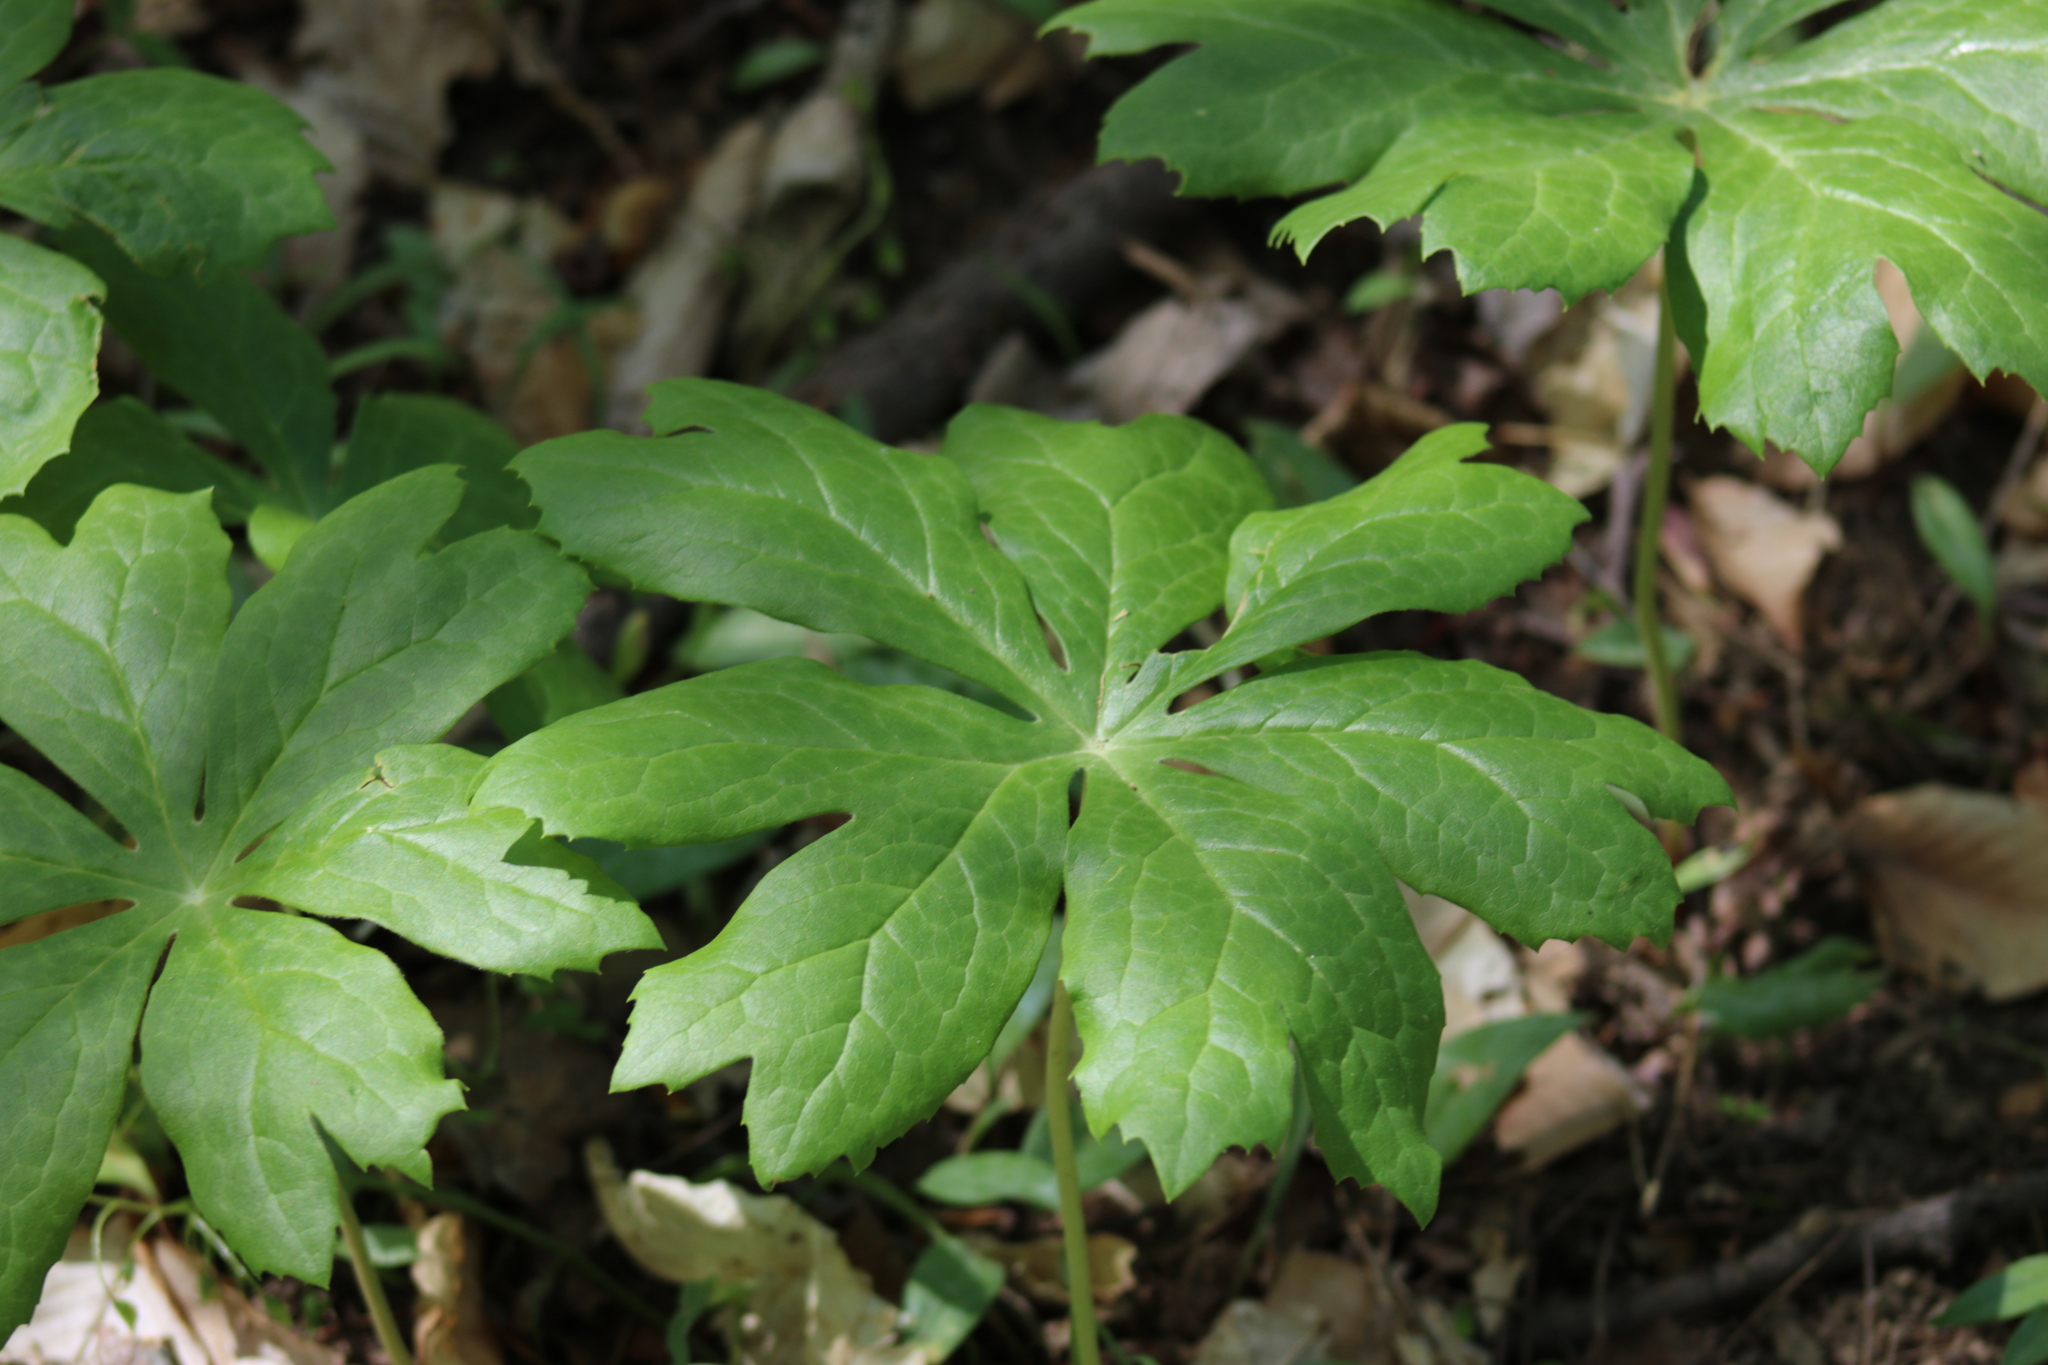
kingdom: Plantae
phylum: Tracheophyta
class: Magnoliopsida
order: Ranunculales
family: Berberidaceae
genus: Podophyllum
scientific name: Podophyllum peltatum
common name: Wild mandrake
